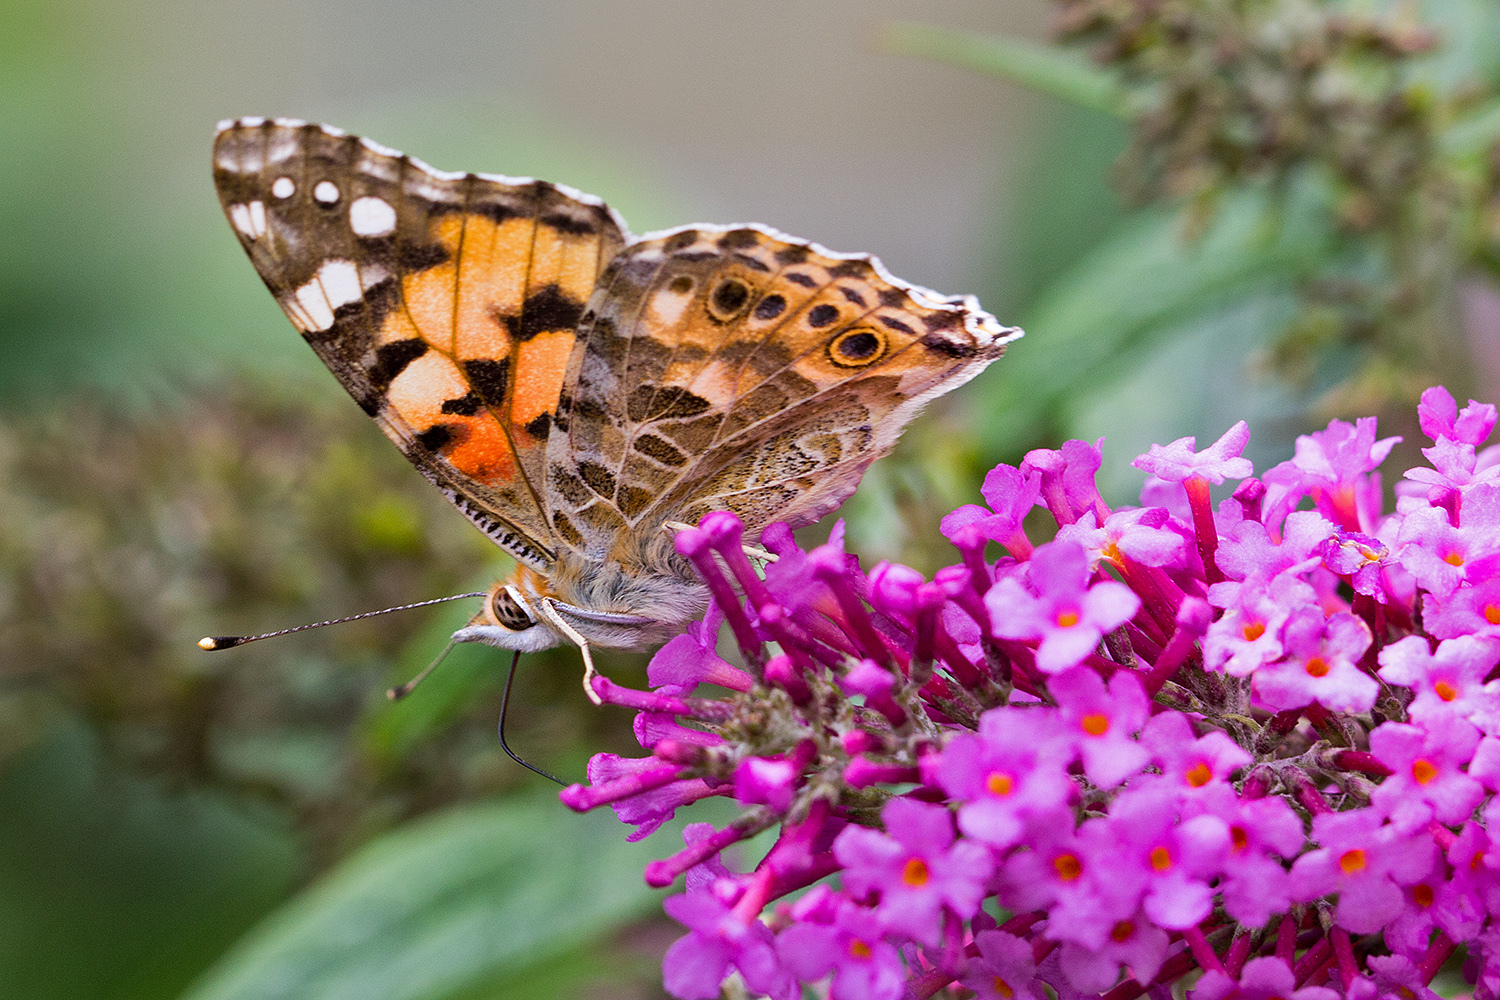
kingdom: Animalia
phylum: Arthropoda
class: Insecta
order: Lepidoptera
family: Nymphalidae
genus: Vanessa
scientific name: Vanessa cardui
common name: Painted lady
